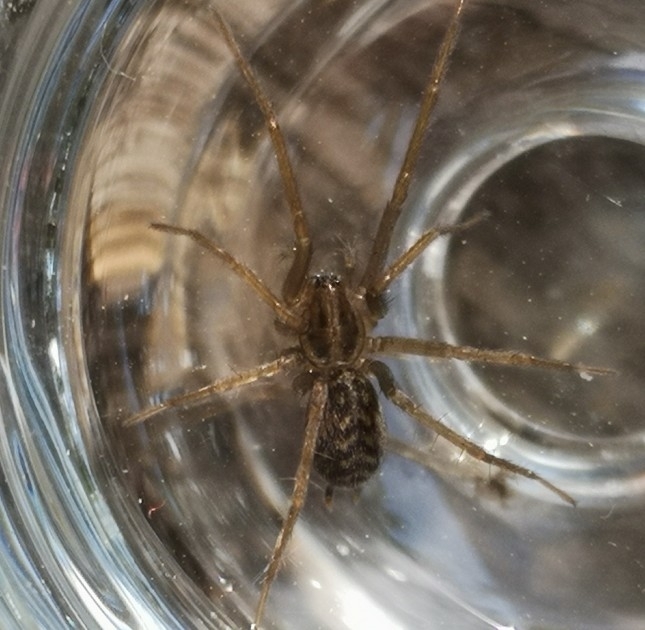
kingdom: Animalia
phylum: Arthropoda
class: Arachnida
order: Araneae
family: Agelenidae
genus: Eratigena
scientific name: Eratigena atrica
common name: Giant house spider
